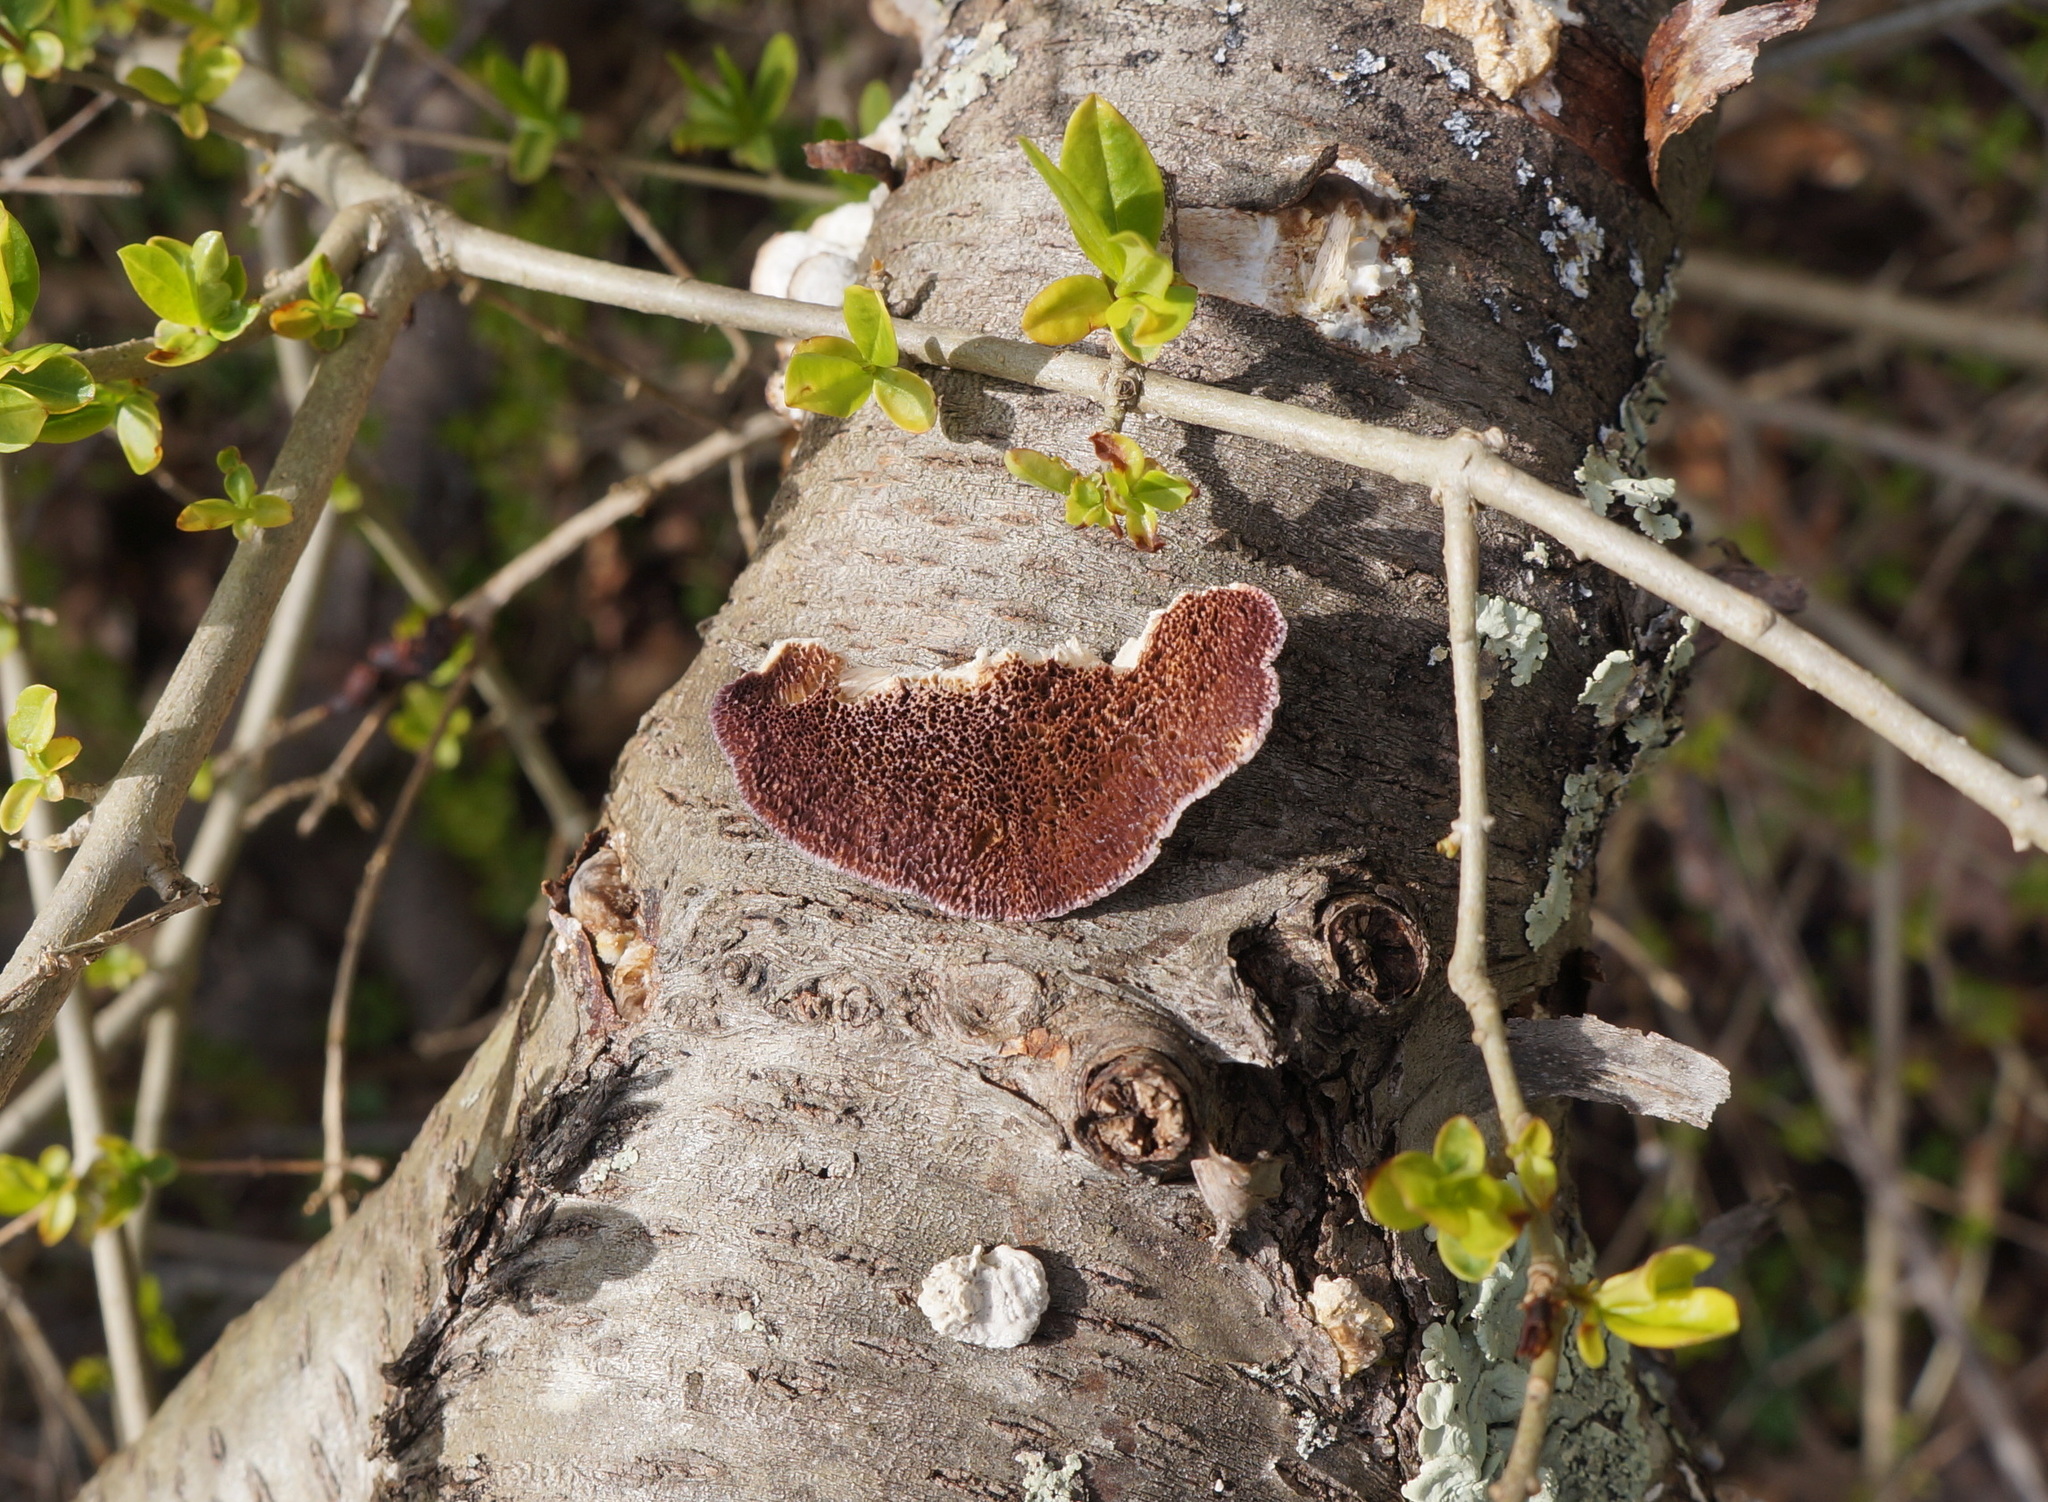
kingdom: Fungi
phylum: Basidiomycota
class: Agaricomycetes
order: Hymenochaetales
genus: Trichaptum
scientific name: Trichaptum biforme
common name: Violet-toothed polypore
